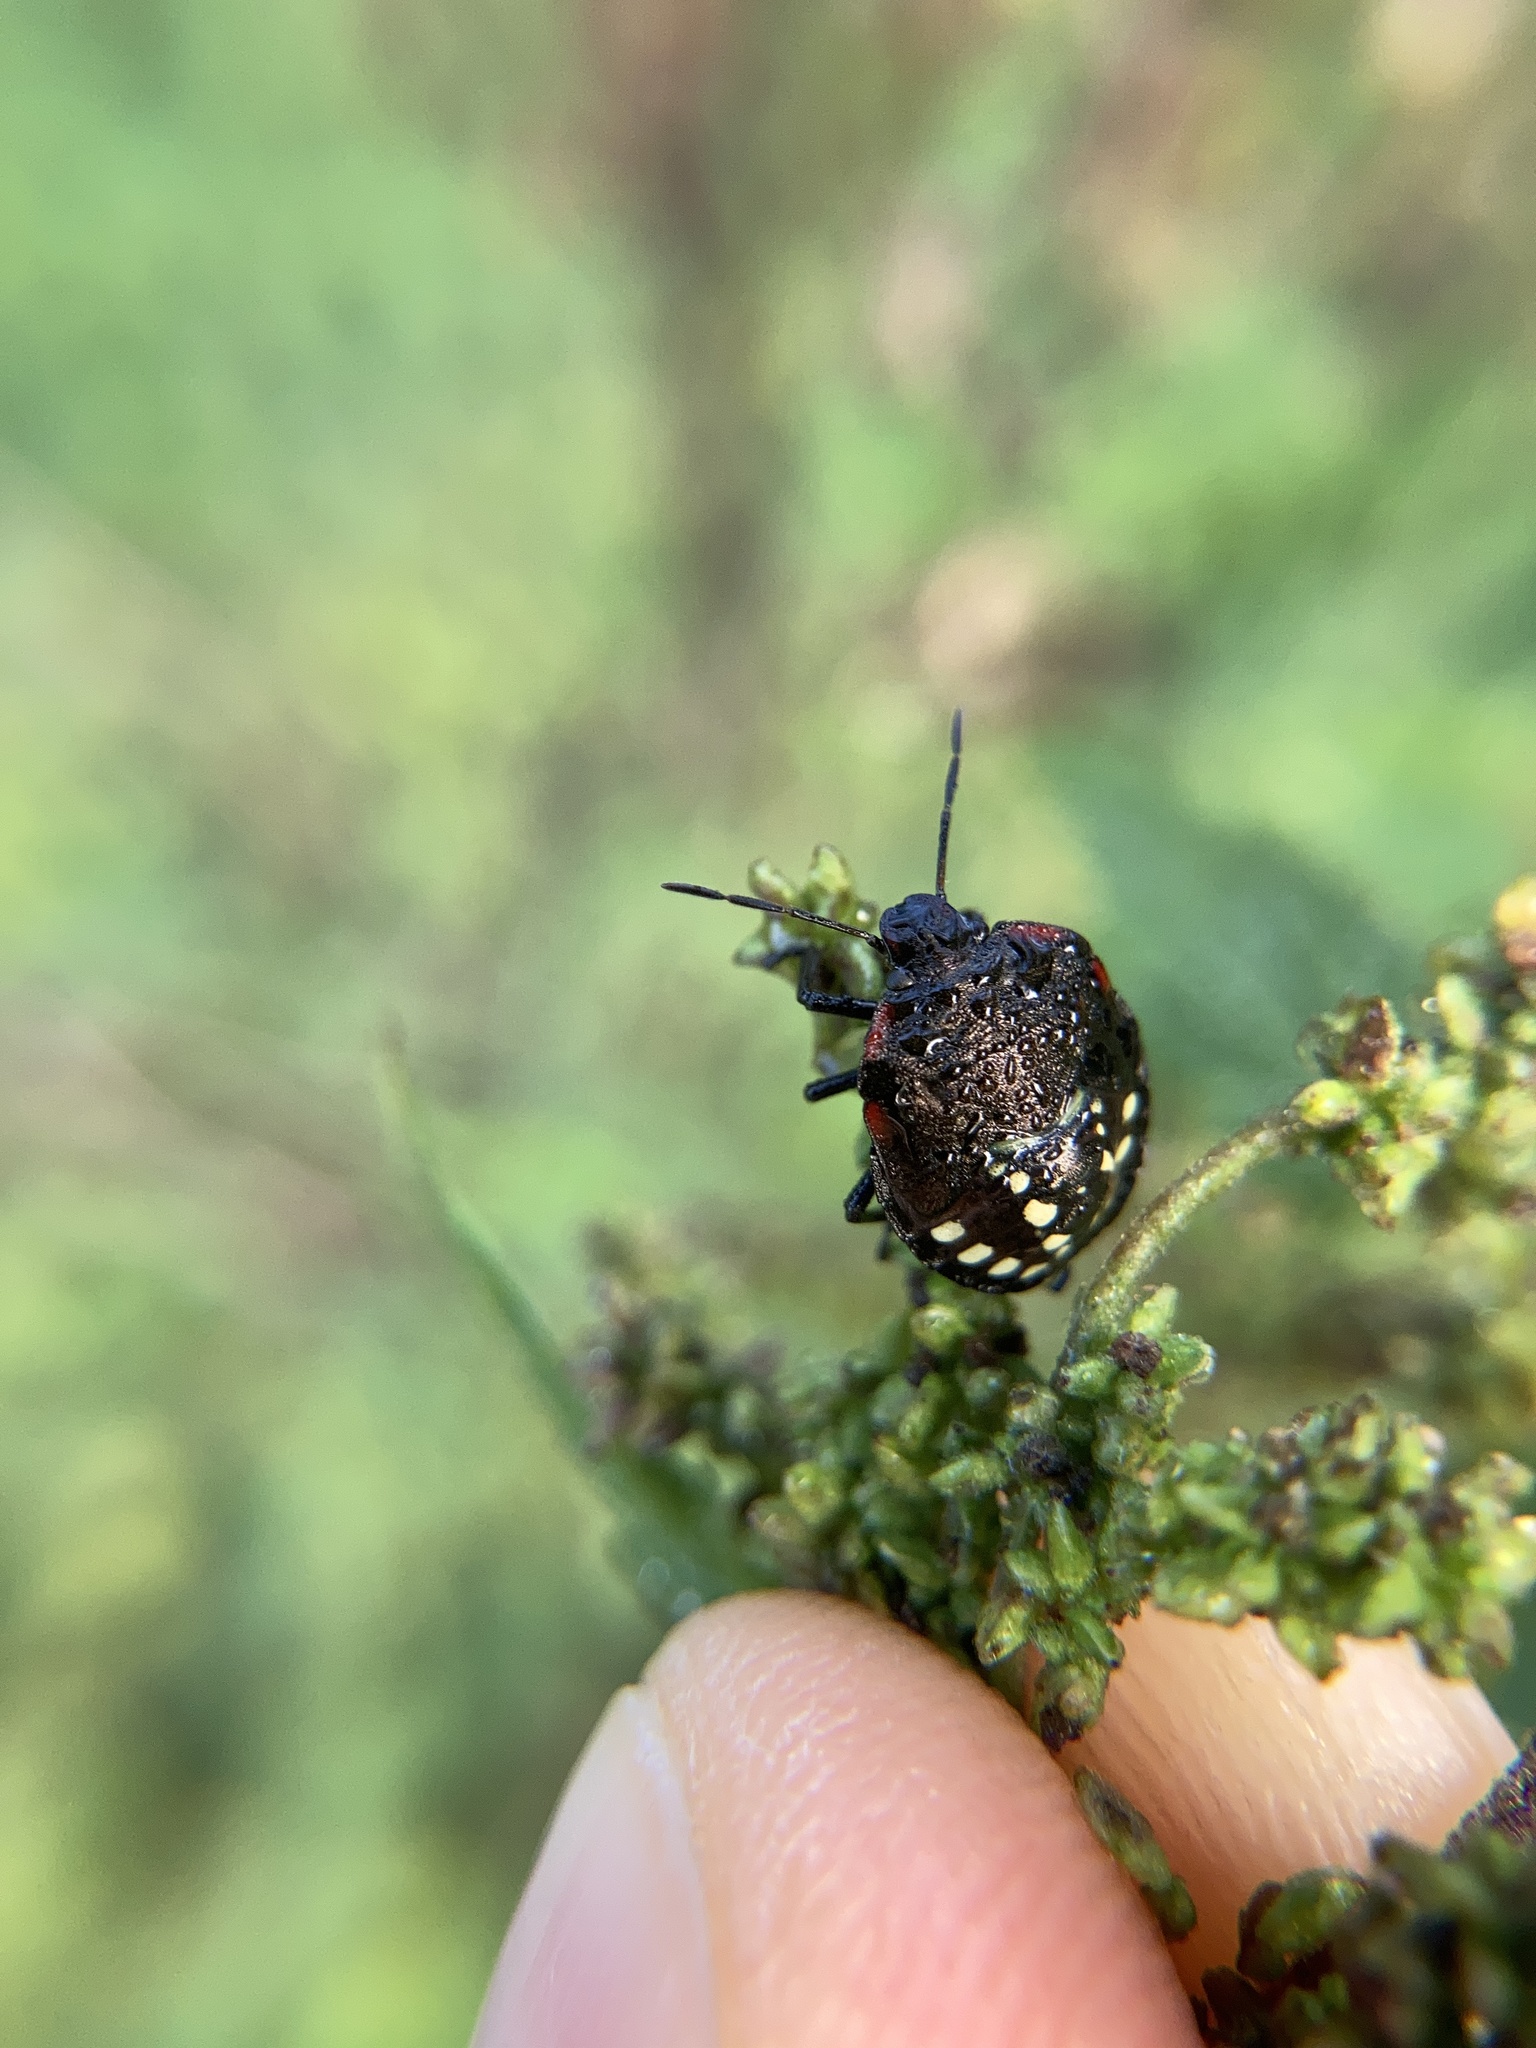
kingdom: Animalia
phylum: Arthropoda
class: Insecta
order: Hemiptera
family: Pentatomidae
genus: Nezara
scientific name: Nezara viridula
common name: Southern green stink bug
